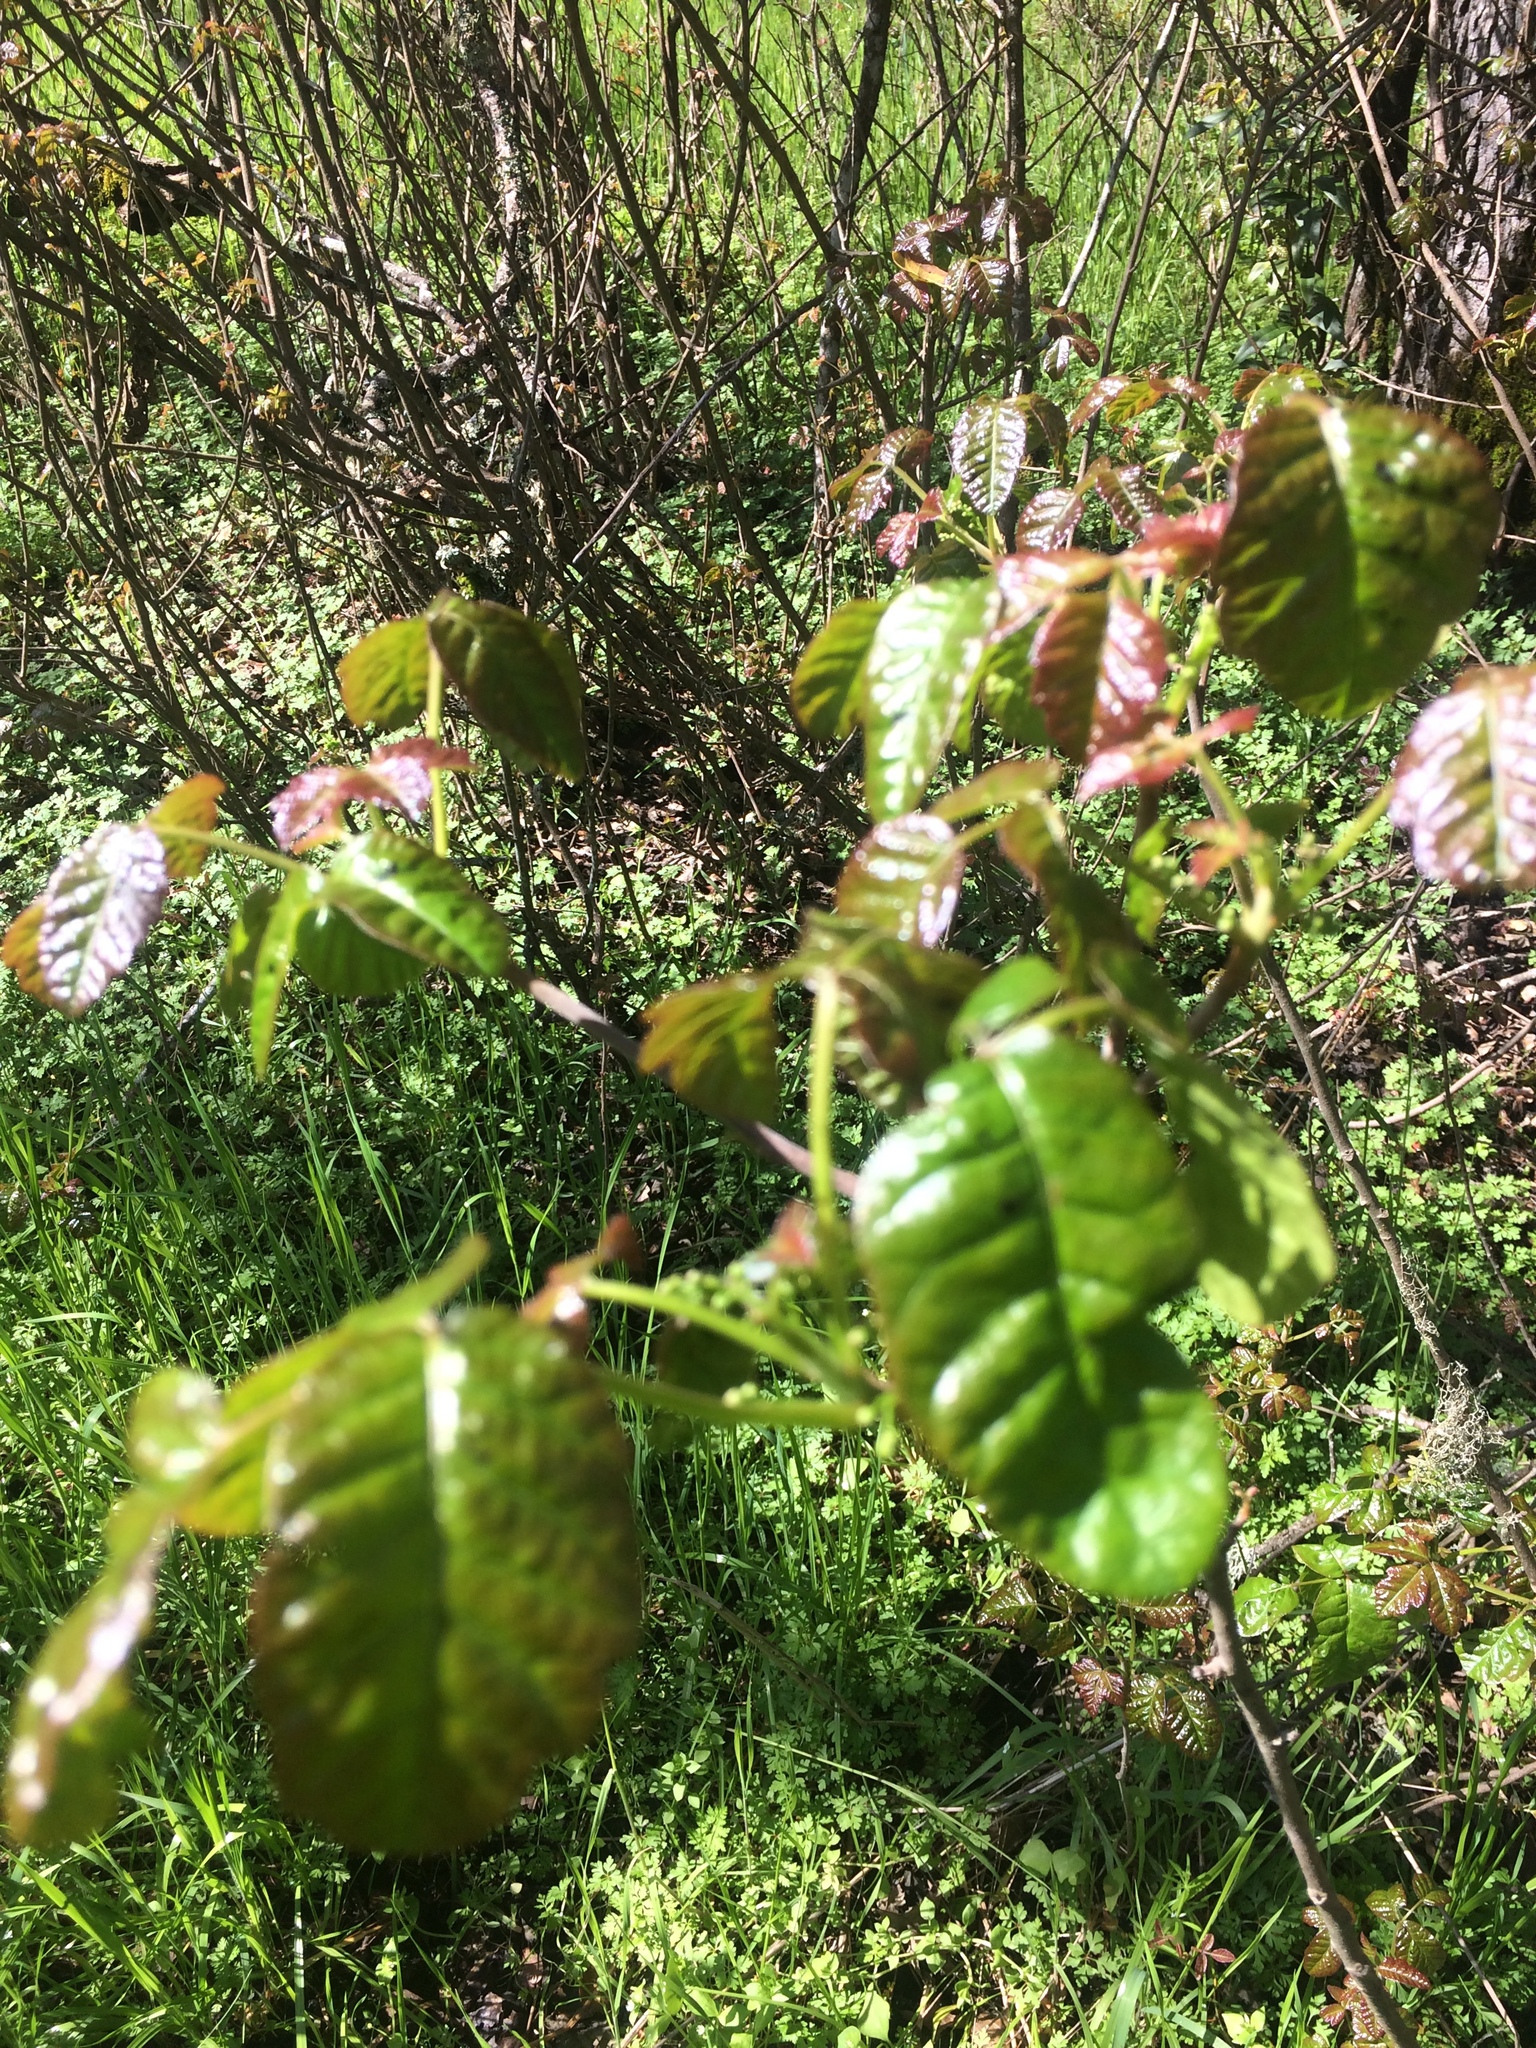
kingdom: Plantae
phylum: Tracheophyta
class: Magnoliopsida
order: Sapindales
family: Anacardiaceae
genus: Toxicodendron
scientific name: Toxicodendron diversilobum
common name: Pacific poison-oak
